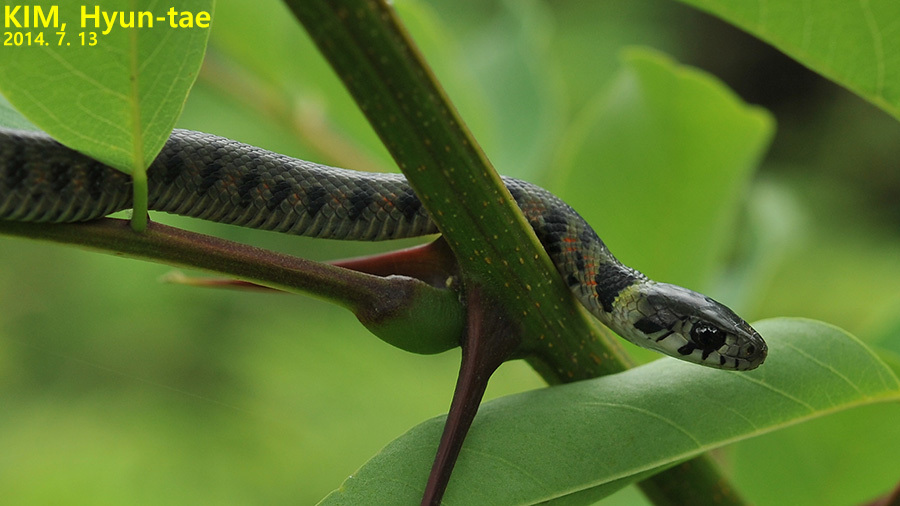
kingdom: Animalia
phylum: Chordata
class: Squamata
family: Colubridae
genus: Rhabdophis
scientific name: Rhabdophis tigrinus
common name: Tiger keelback
